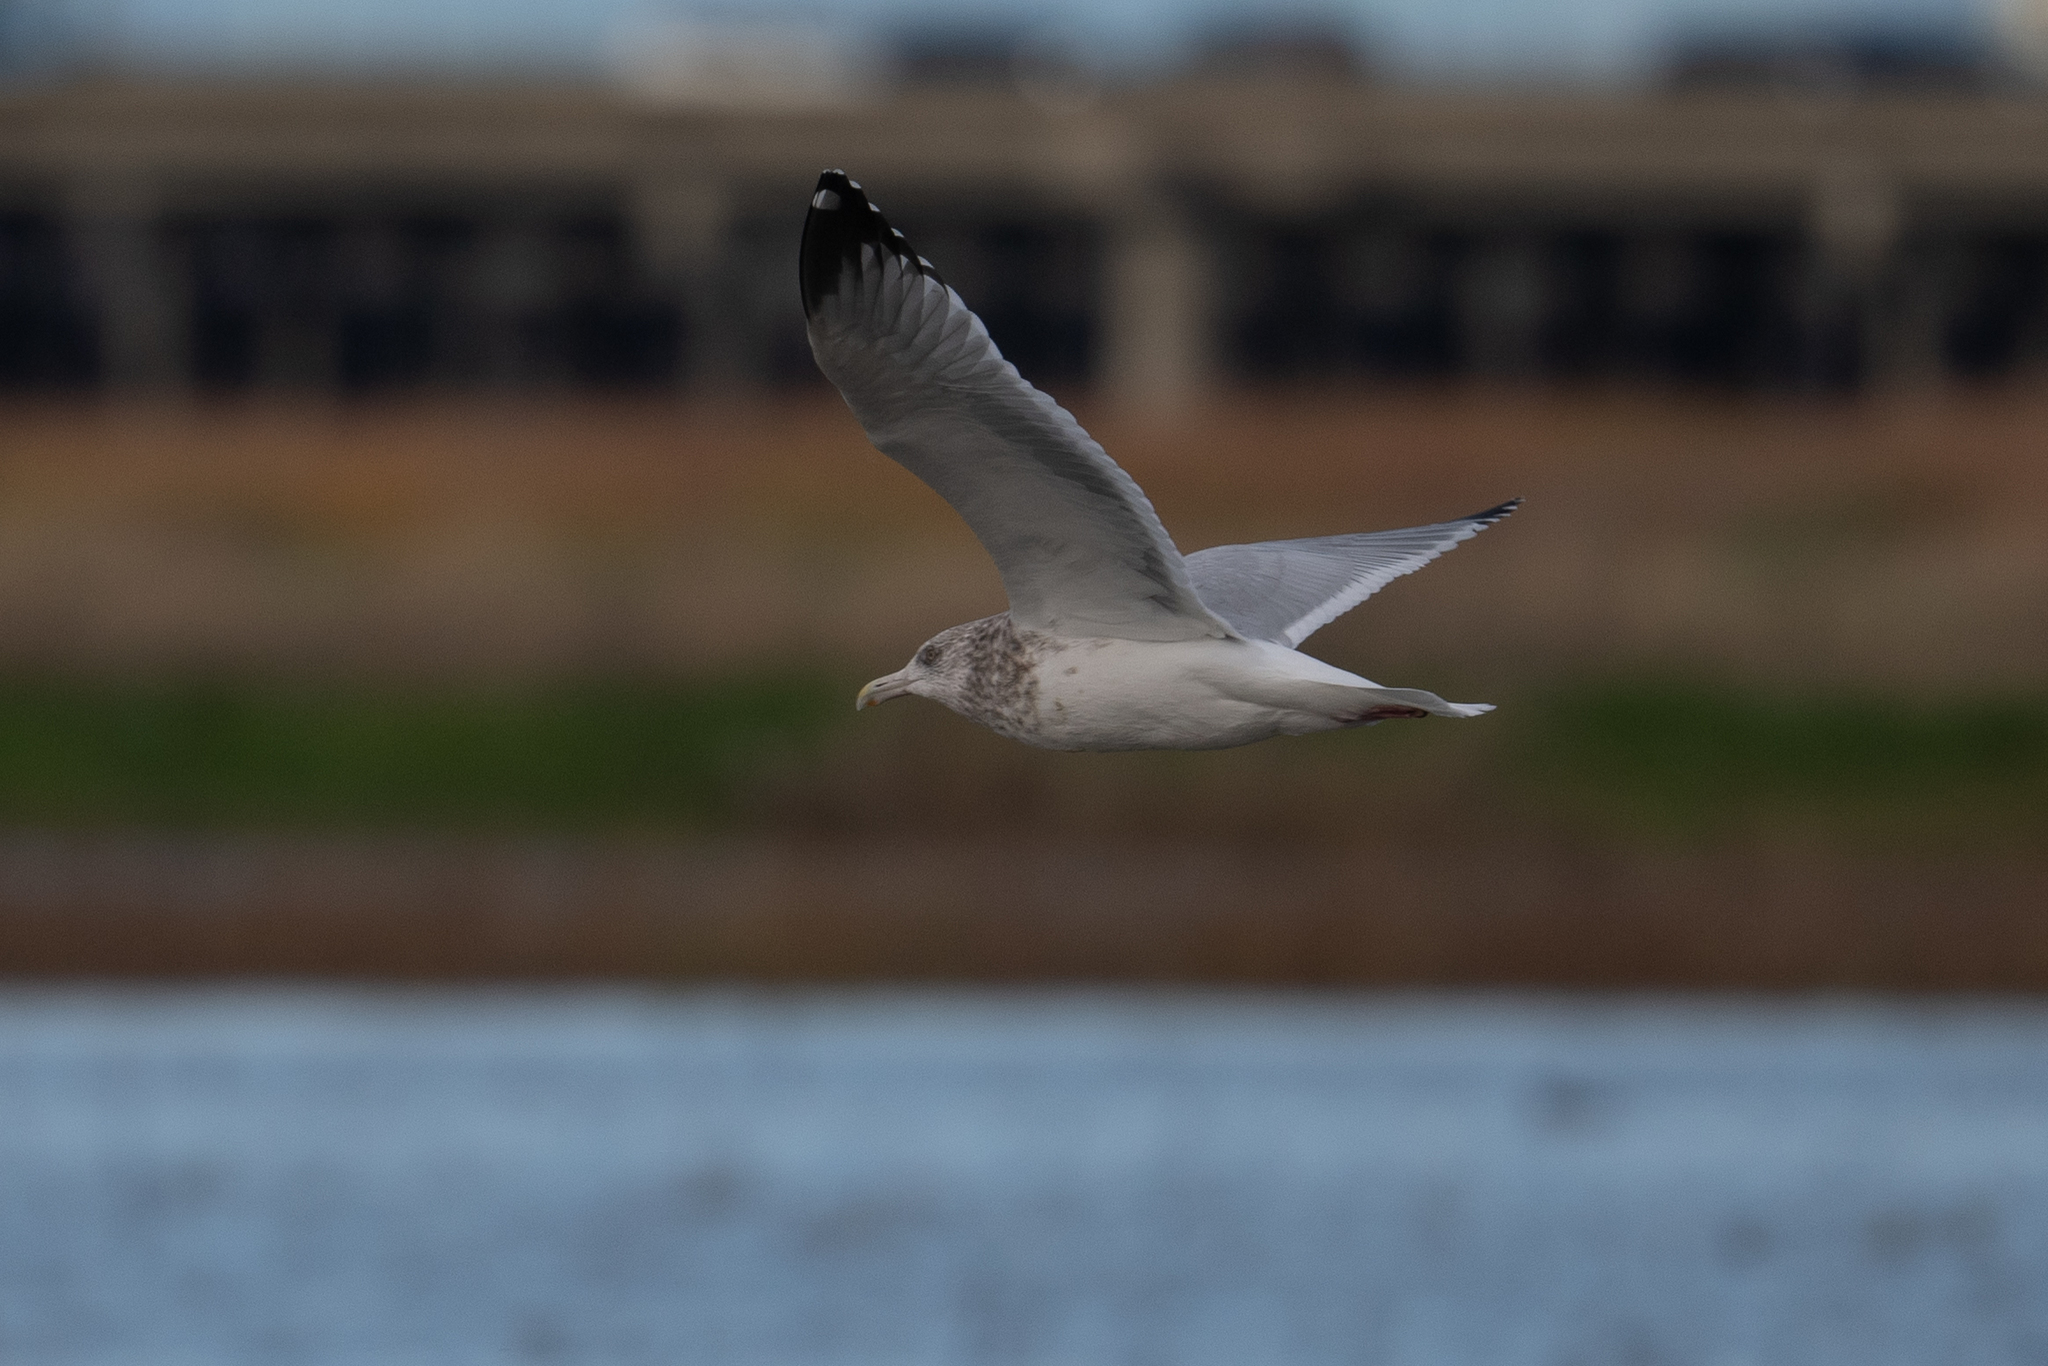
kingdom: Animalia
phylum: Chordata
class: Aves
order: Charadriiformes
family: Laridae
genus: Larus
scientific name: Larus argentatus
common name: Herring gull
